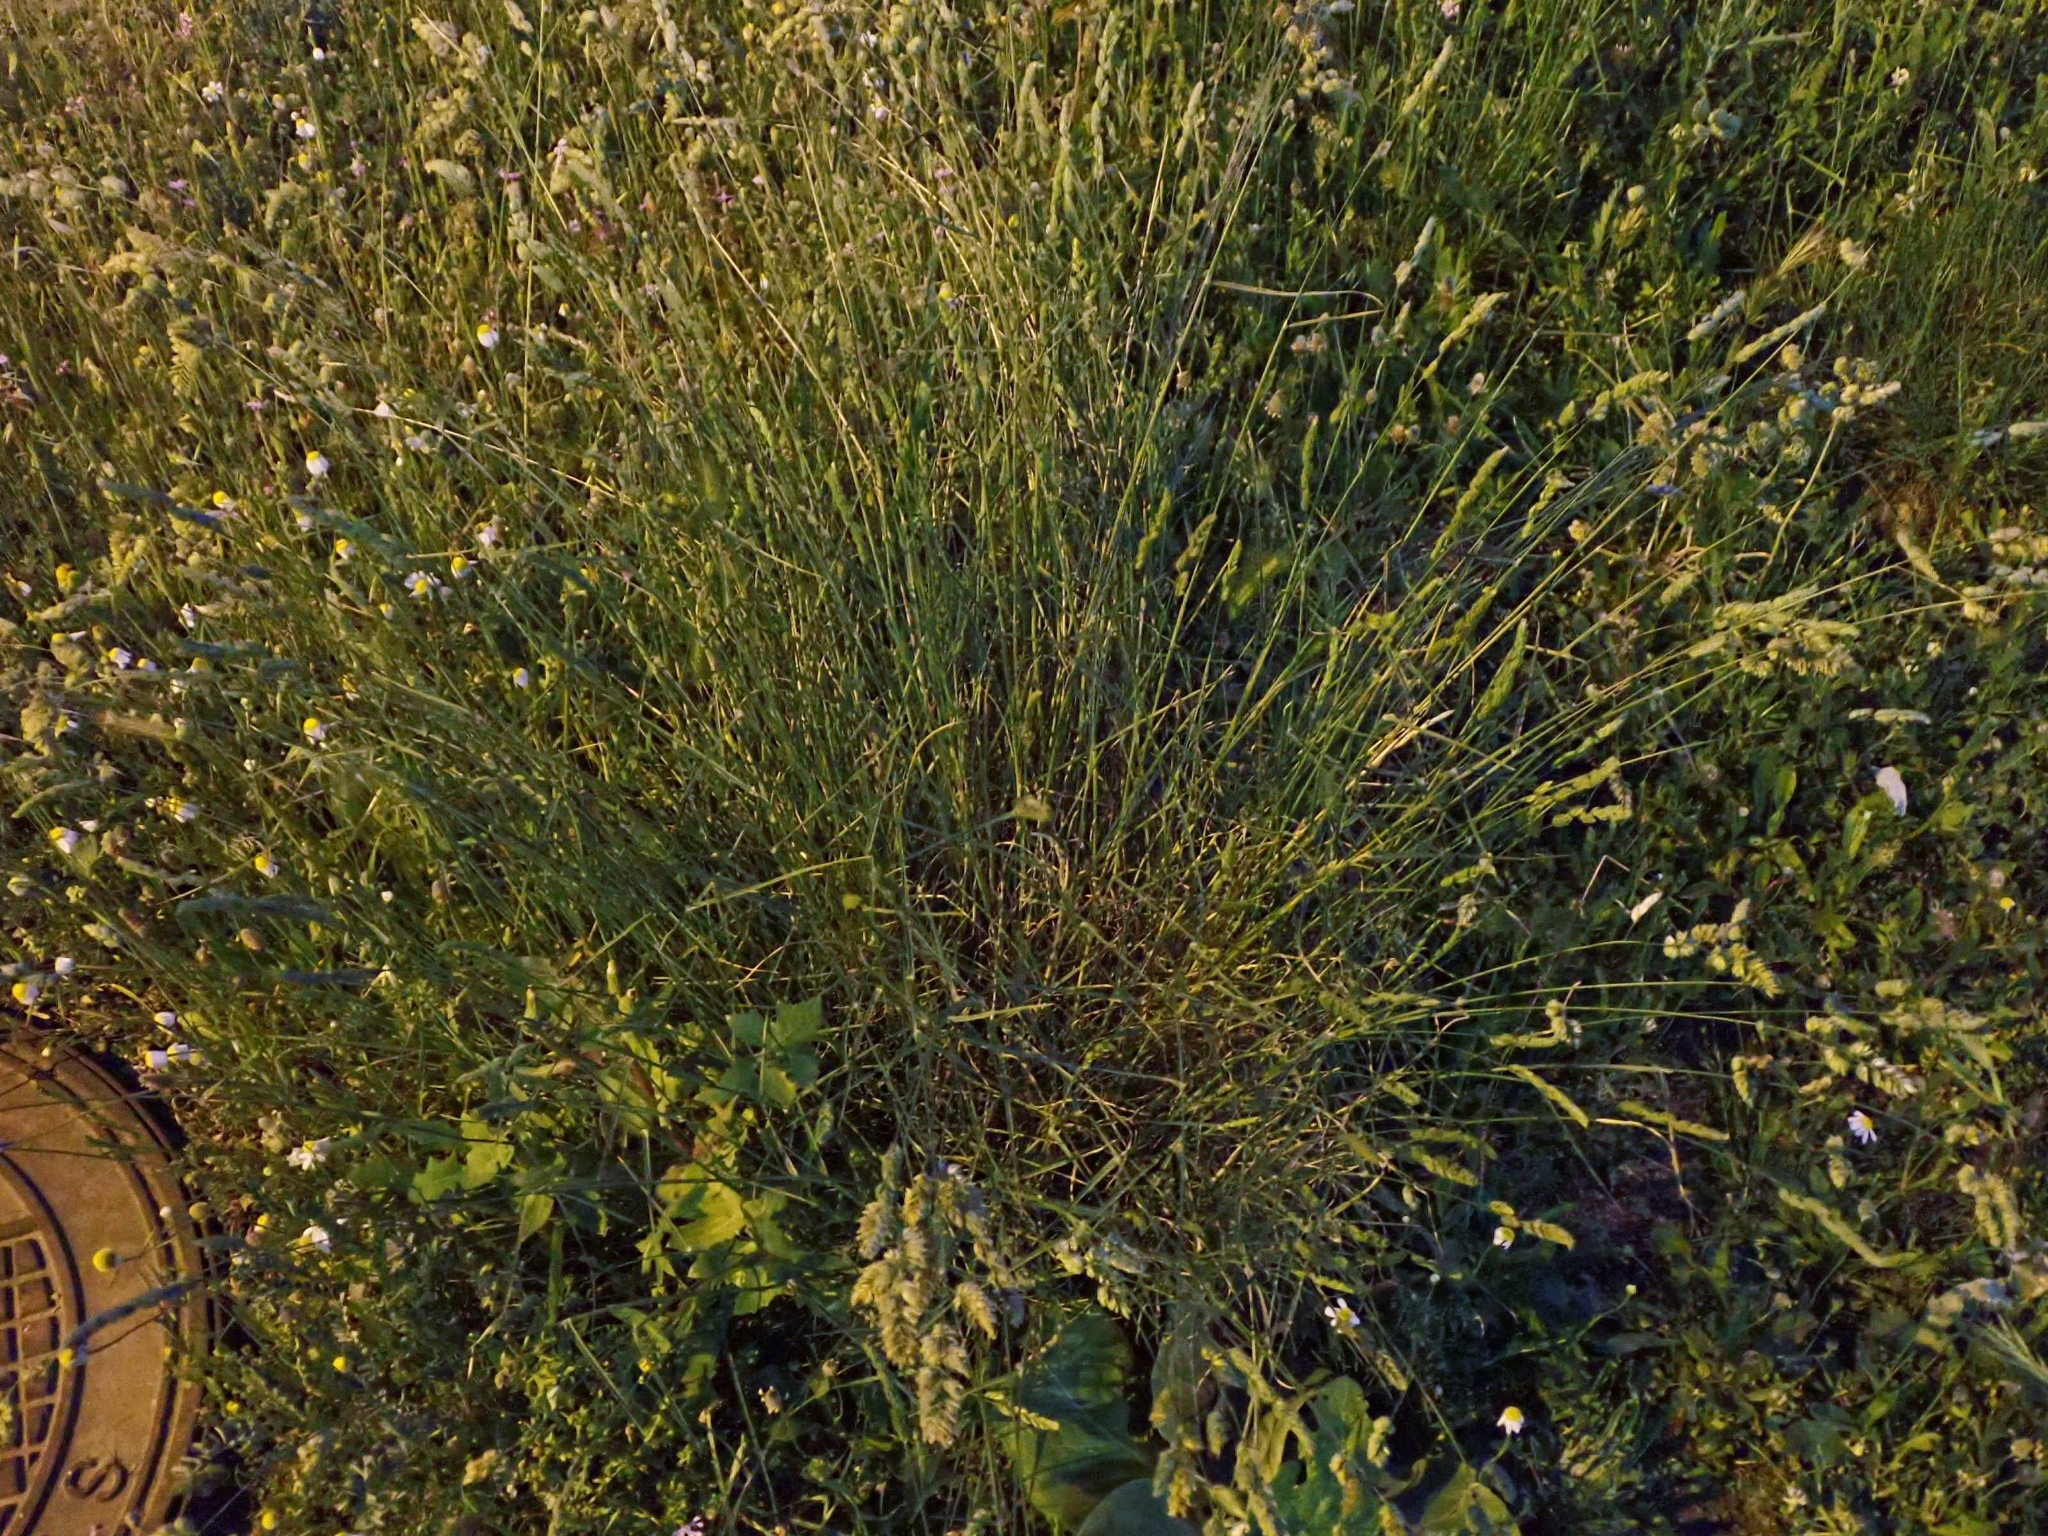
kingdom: Plantae
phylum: Tracheophyta
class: Liliopsida
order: Poales
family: Poaceae
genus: Dactylis
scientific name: Dactylis glomerata
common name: Orchardgrass
